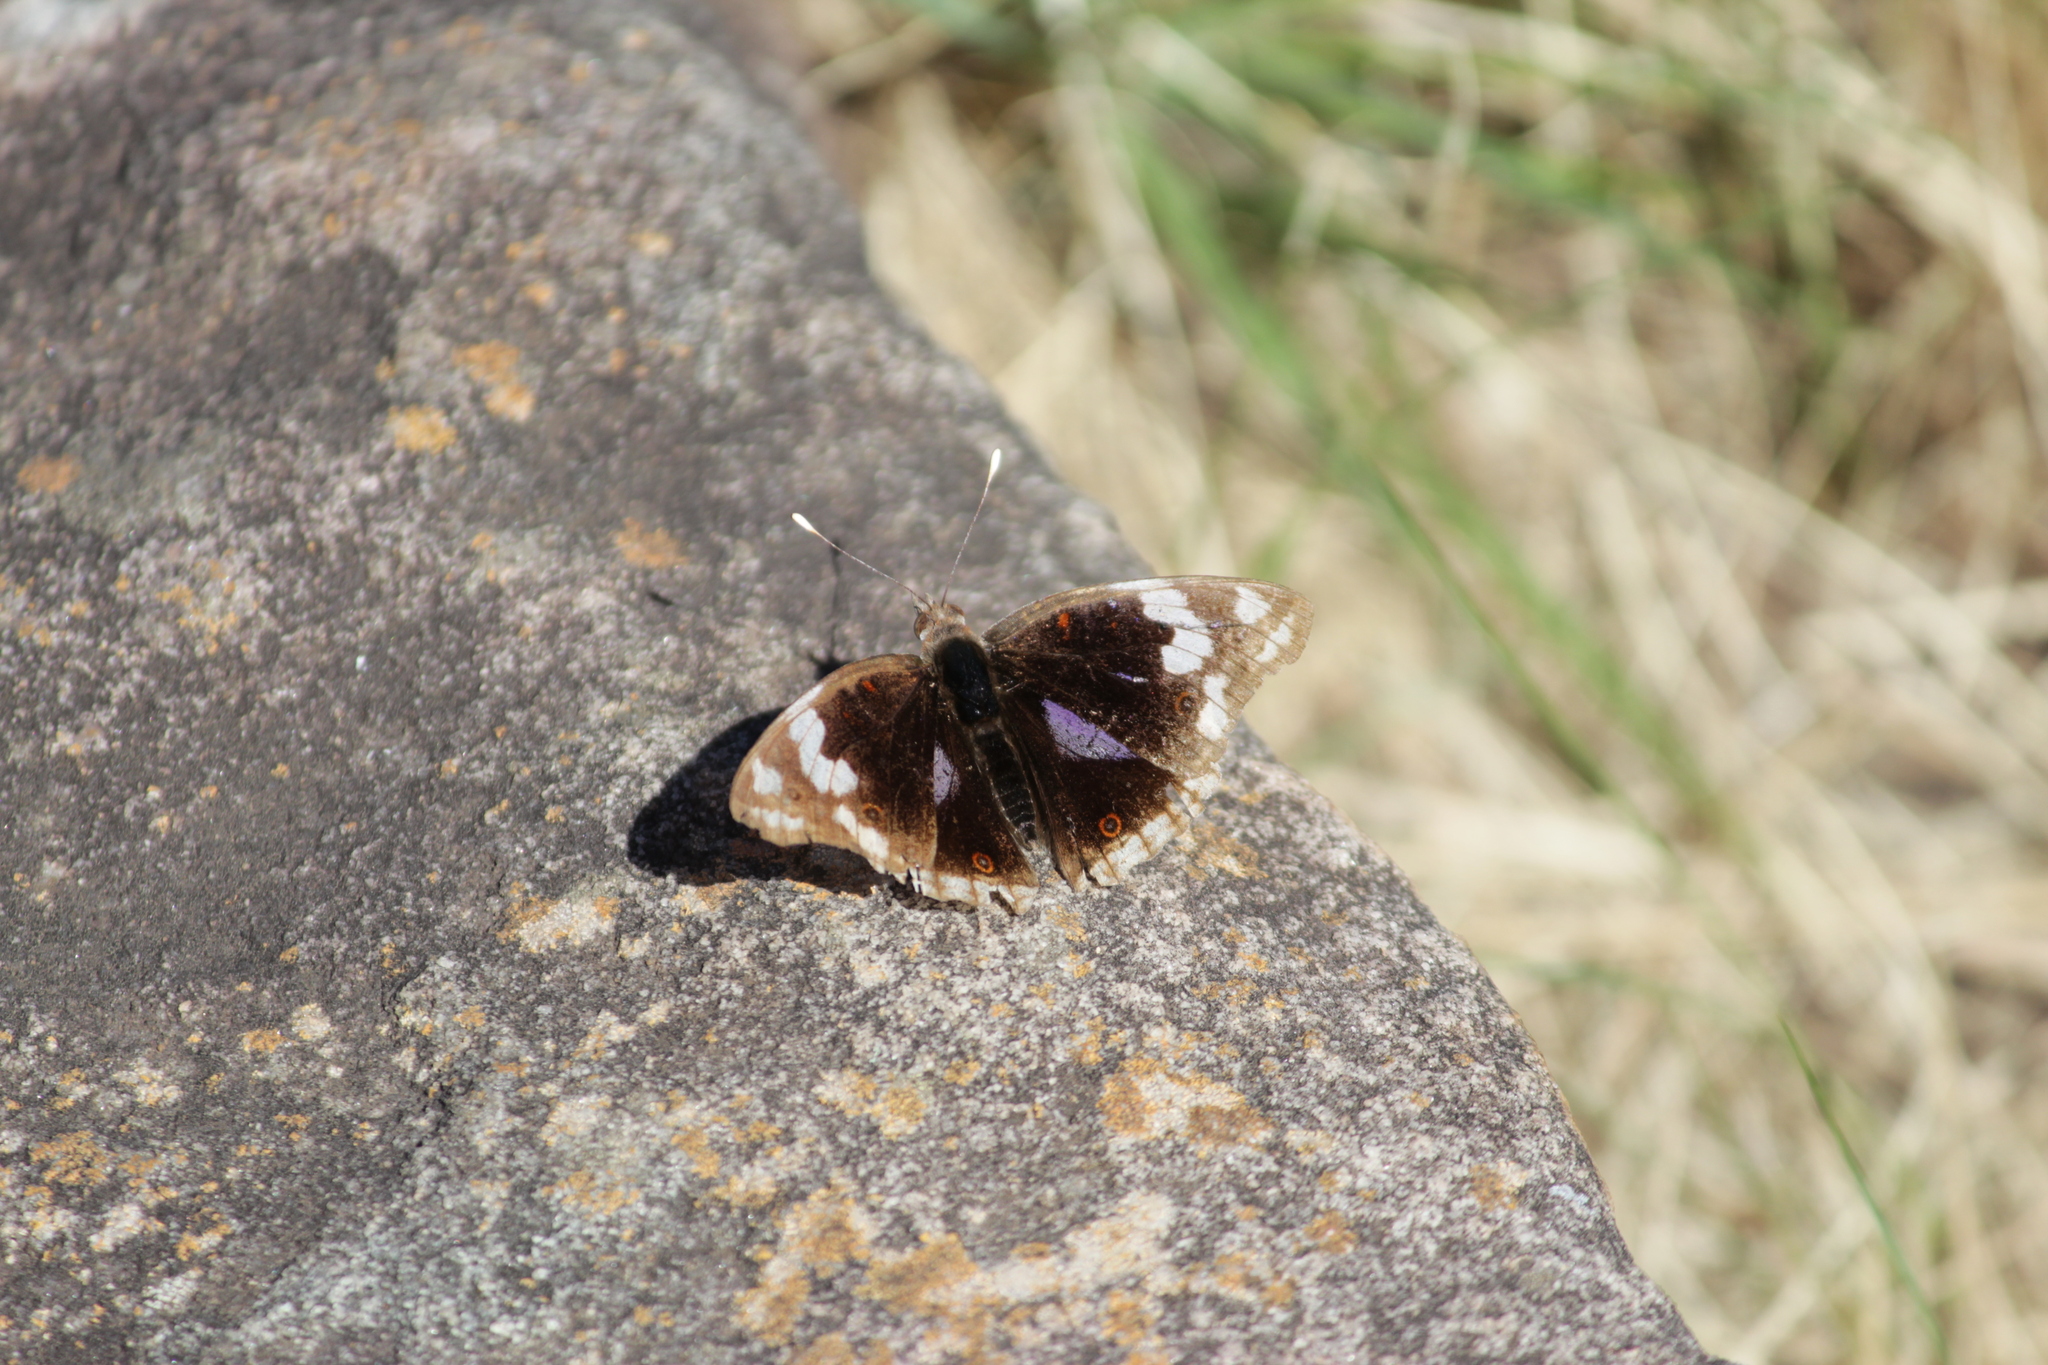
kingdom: Animalia
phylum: Arthropoda
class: Insecta
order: Lepidoptera
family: Nymphalidae
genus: Junonia
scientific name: Junonia oenone
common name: Dark blue pansy
